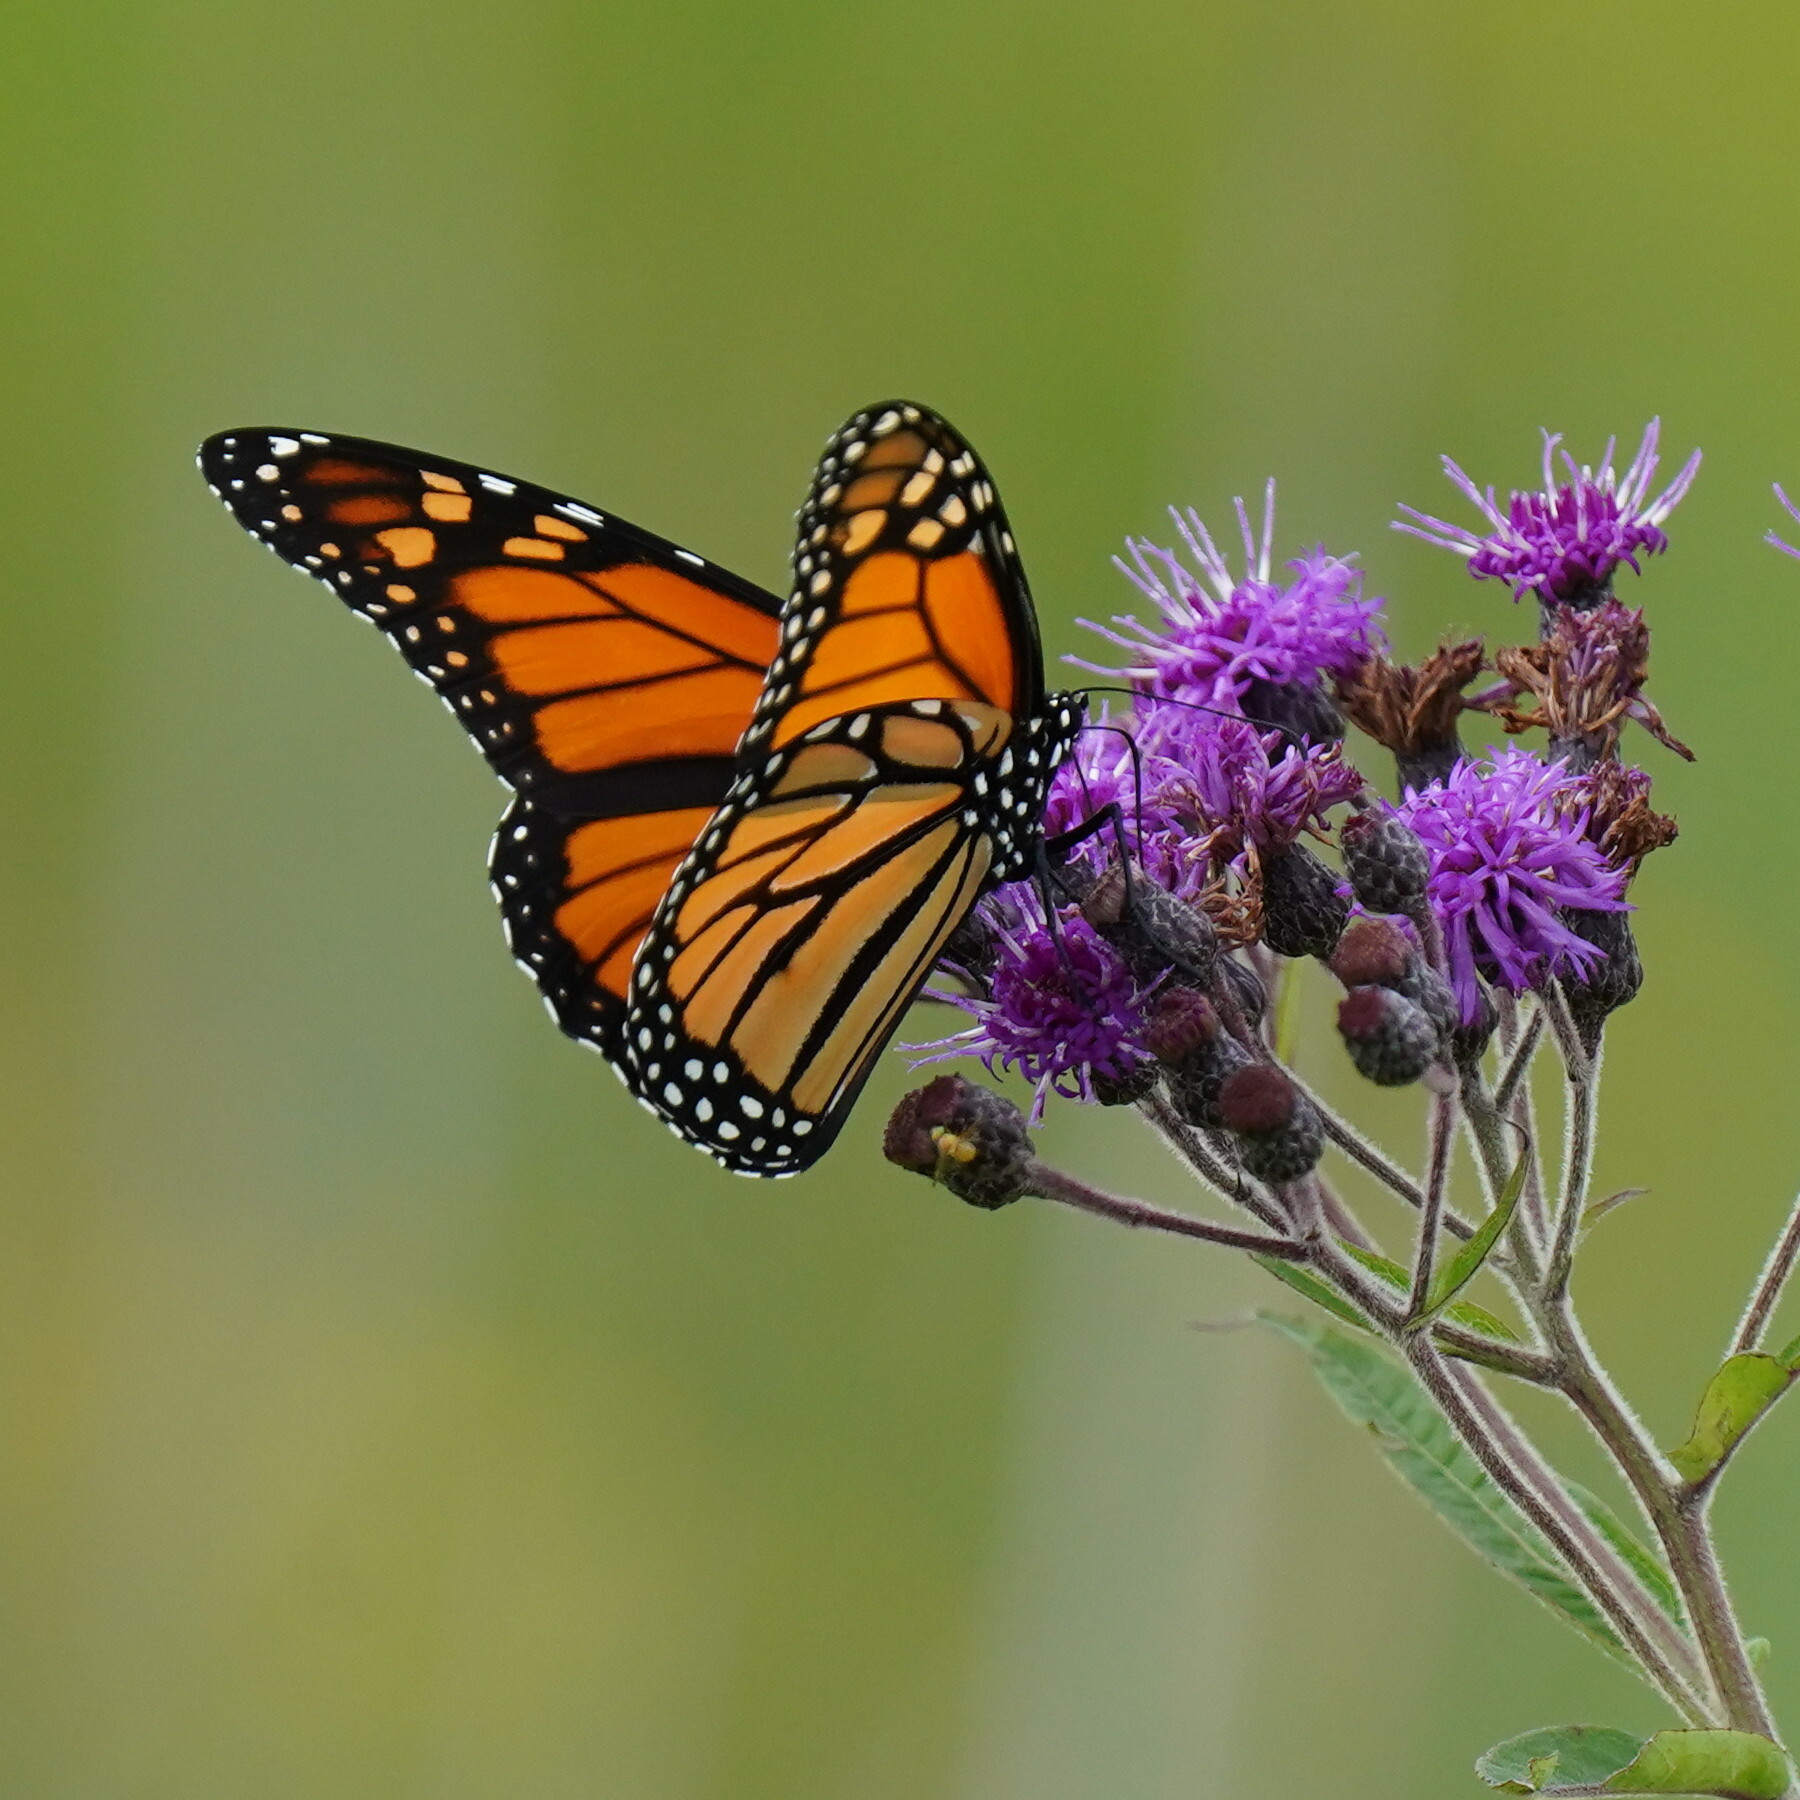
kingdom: Animalia
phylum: Arthropoda
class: Insecta
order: Lepidoptera
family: Nymphalidae
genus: Danaus
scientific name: Danaus plexippus
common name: Monarch
